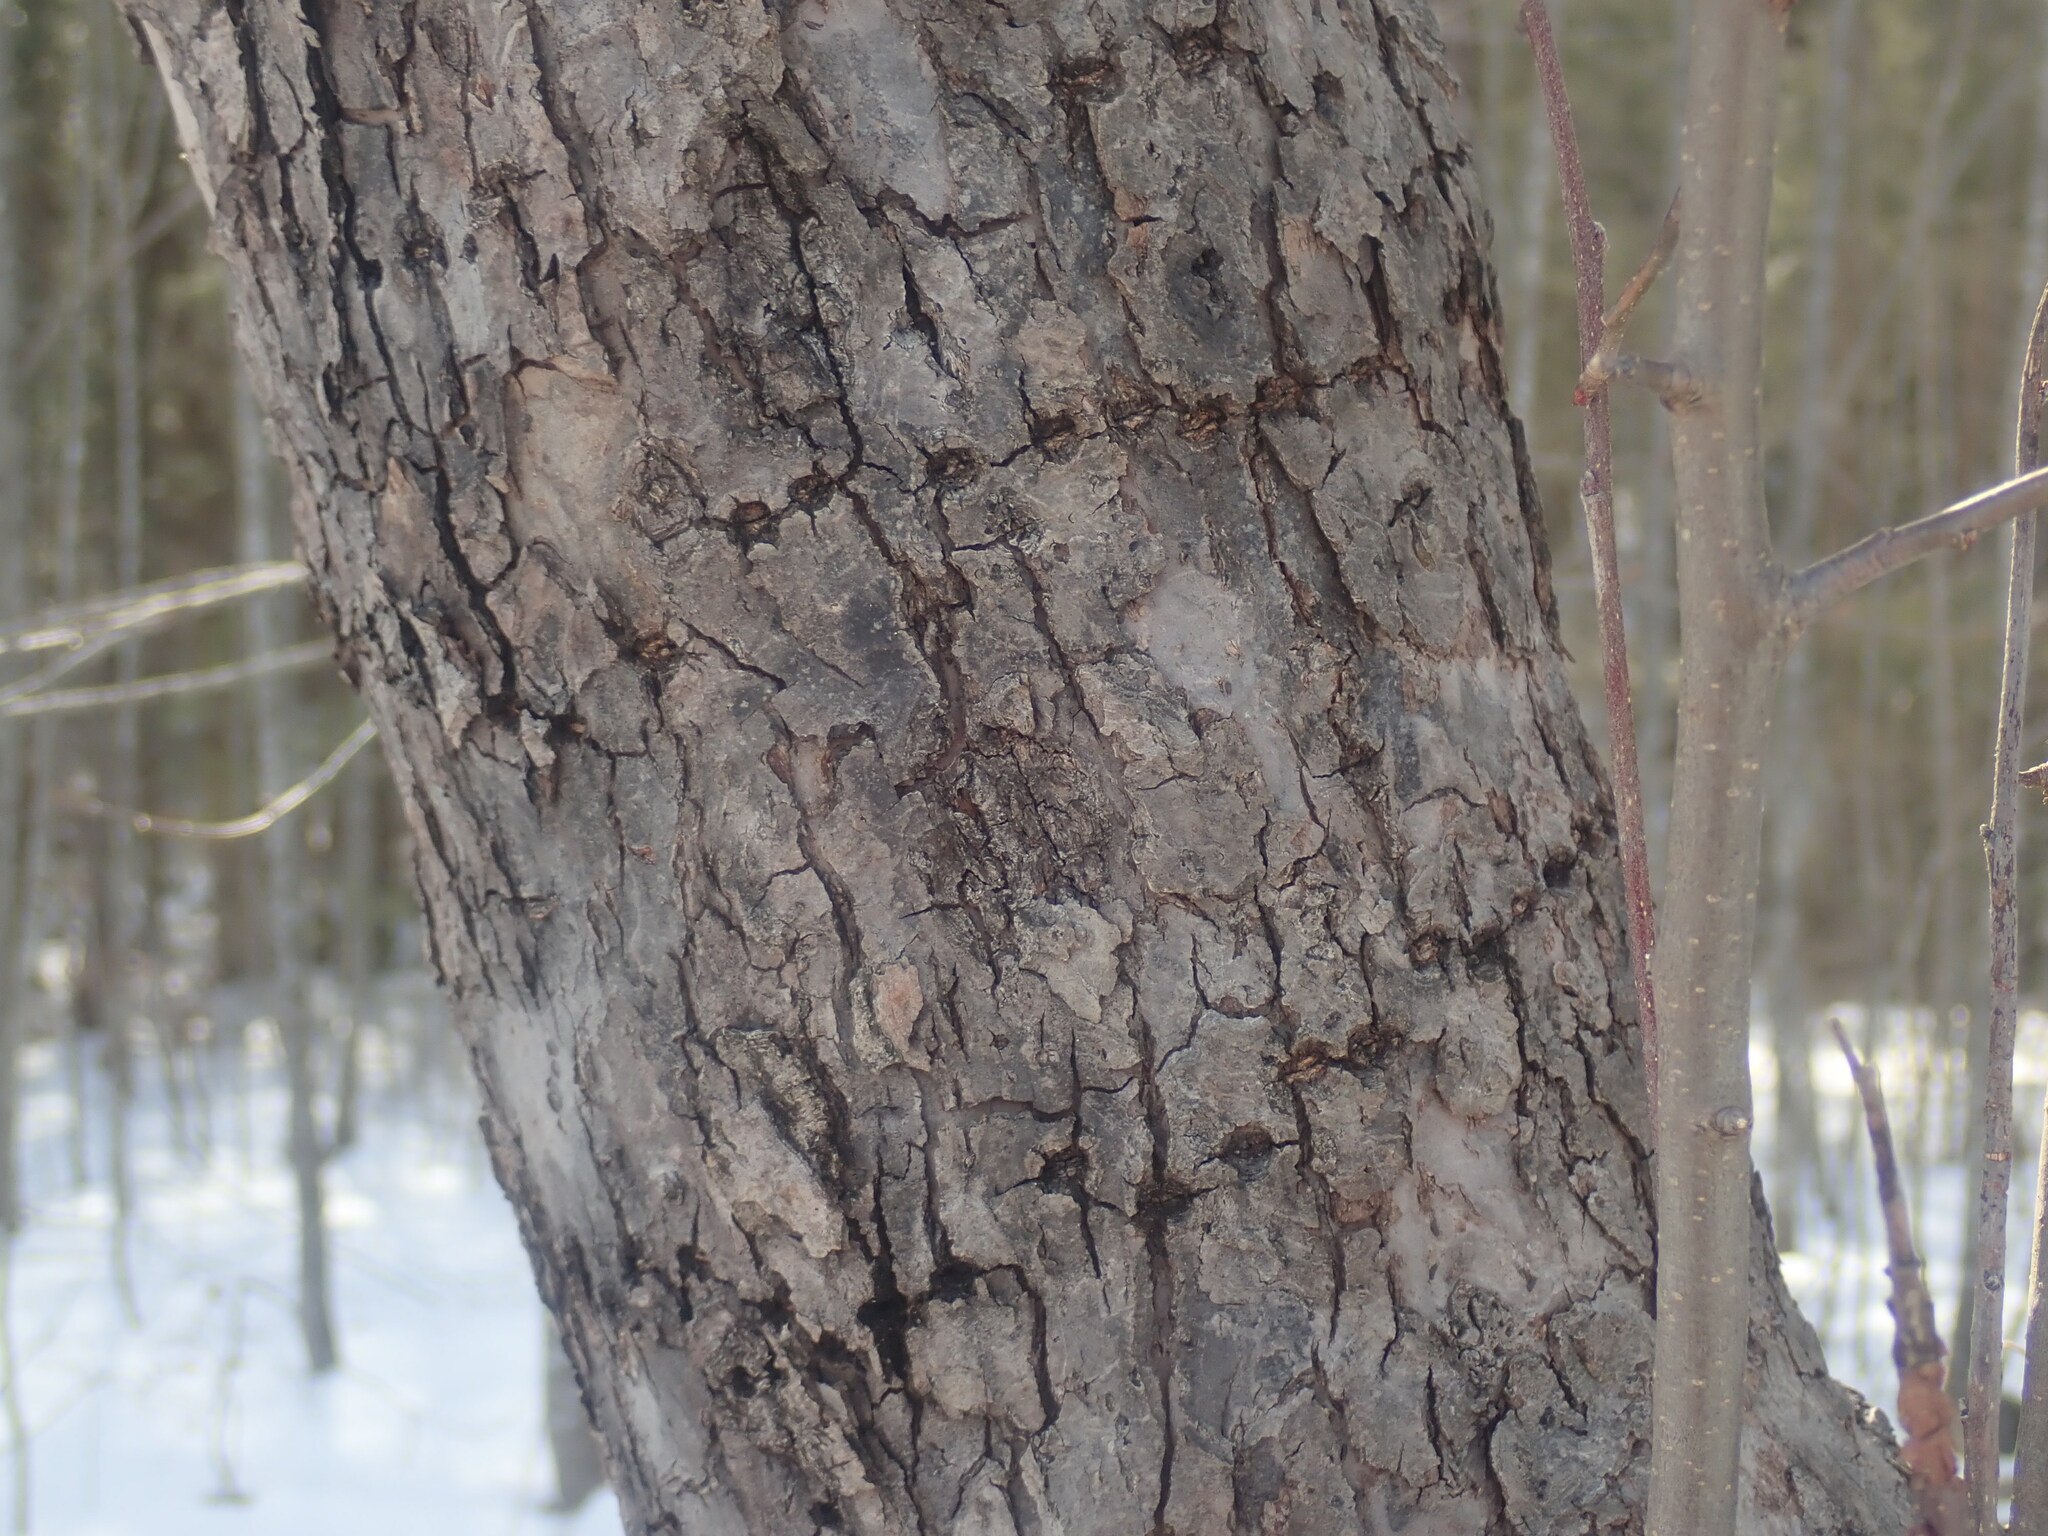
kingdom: Animalia
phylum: Chordata
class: Aves
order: Piciformes
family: Picidae
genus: Sphyrapicus
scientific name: Sphyrapicus varius
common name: Yellow-bellied sapsucker
